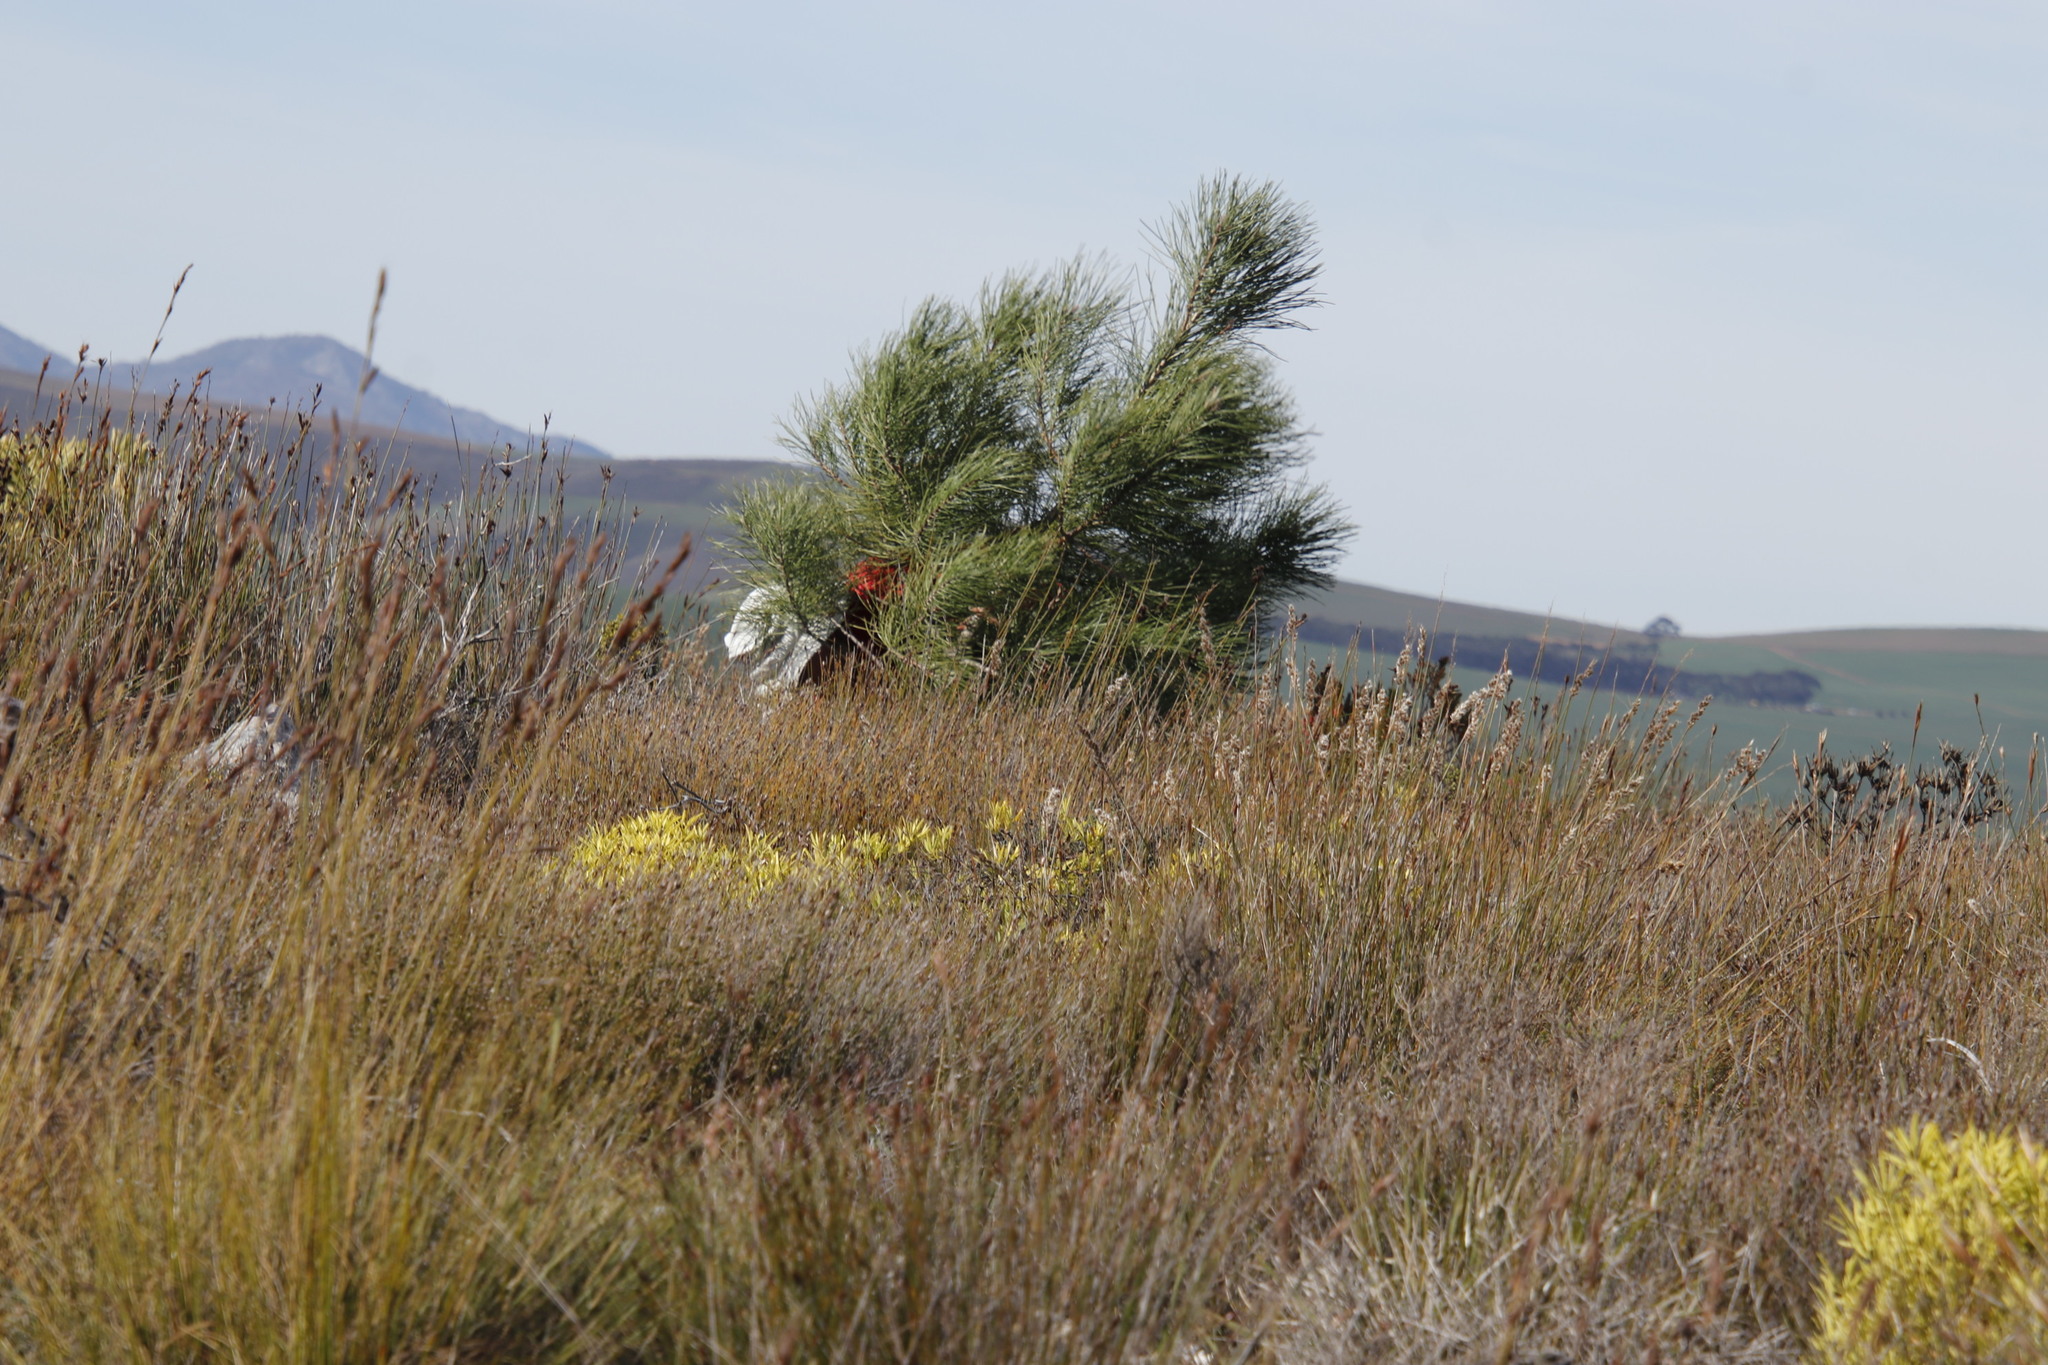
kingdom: Plantae
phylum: Tracheophyta
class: Pinopsida
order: Pinales
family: Pinaceae
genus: Pinus
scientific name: Pinus pinaster
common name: Maritime pine
